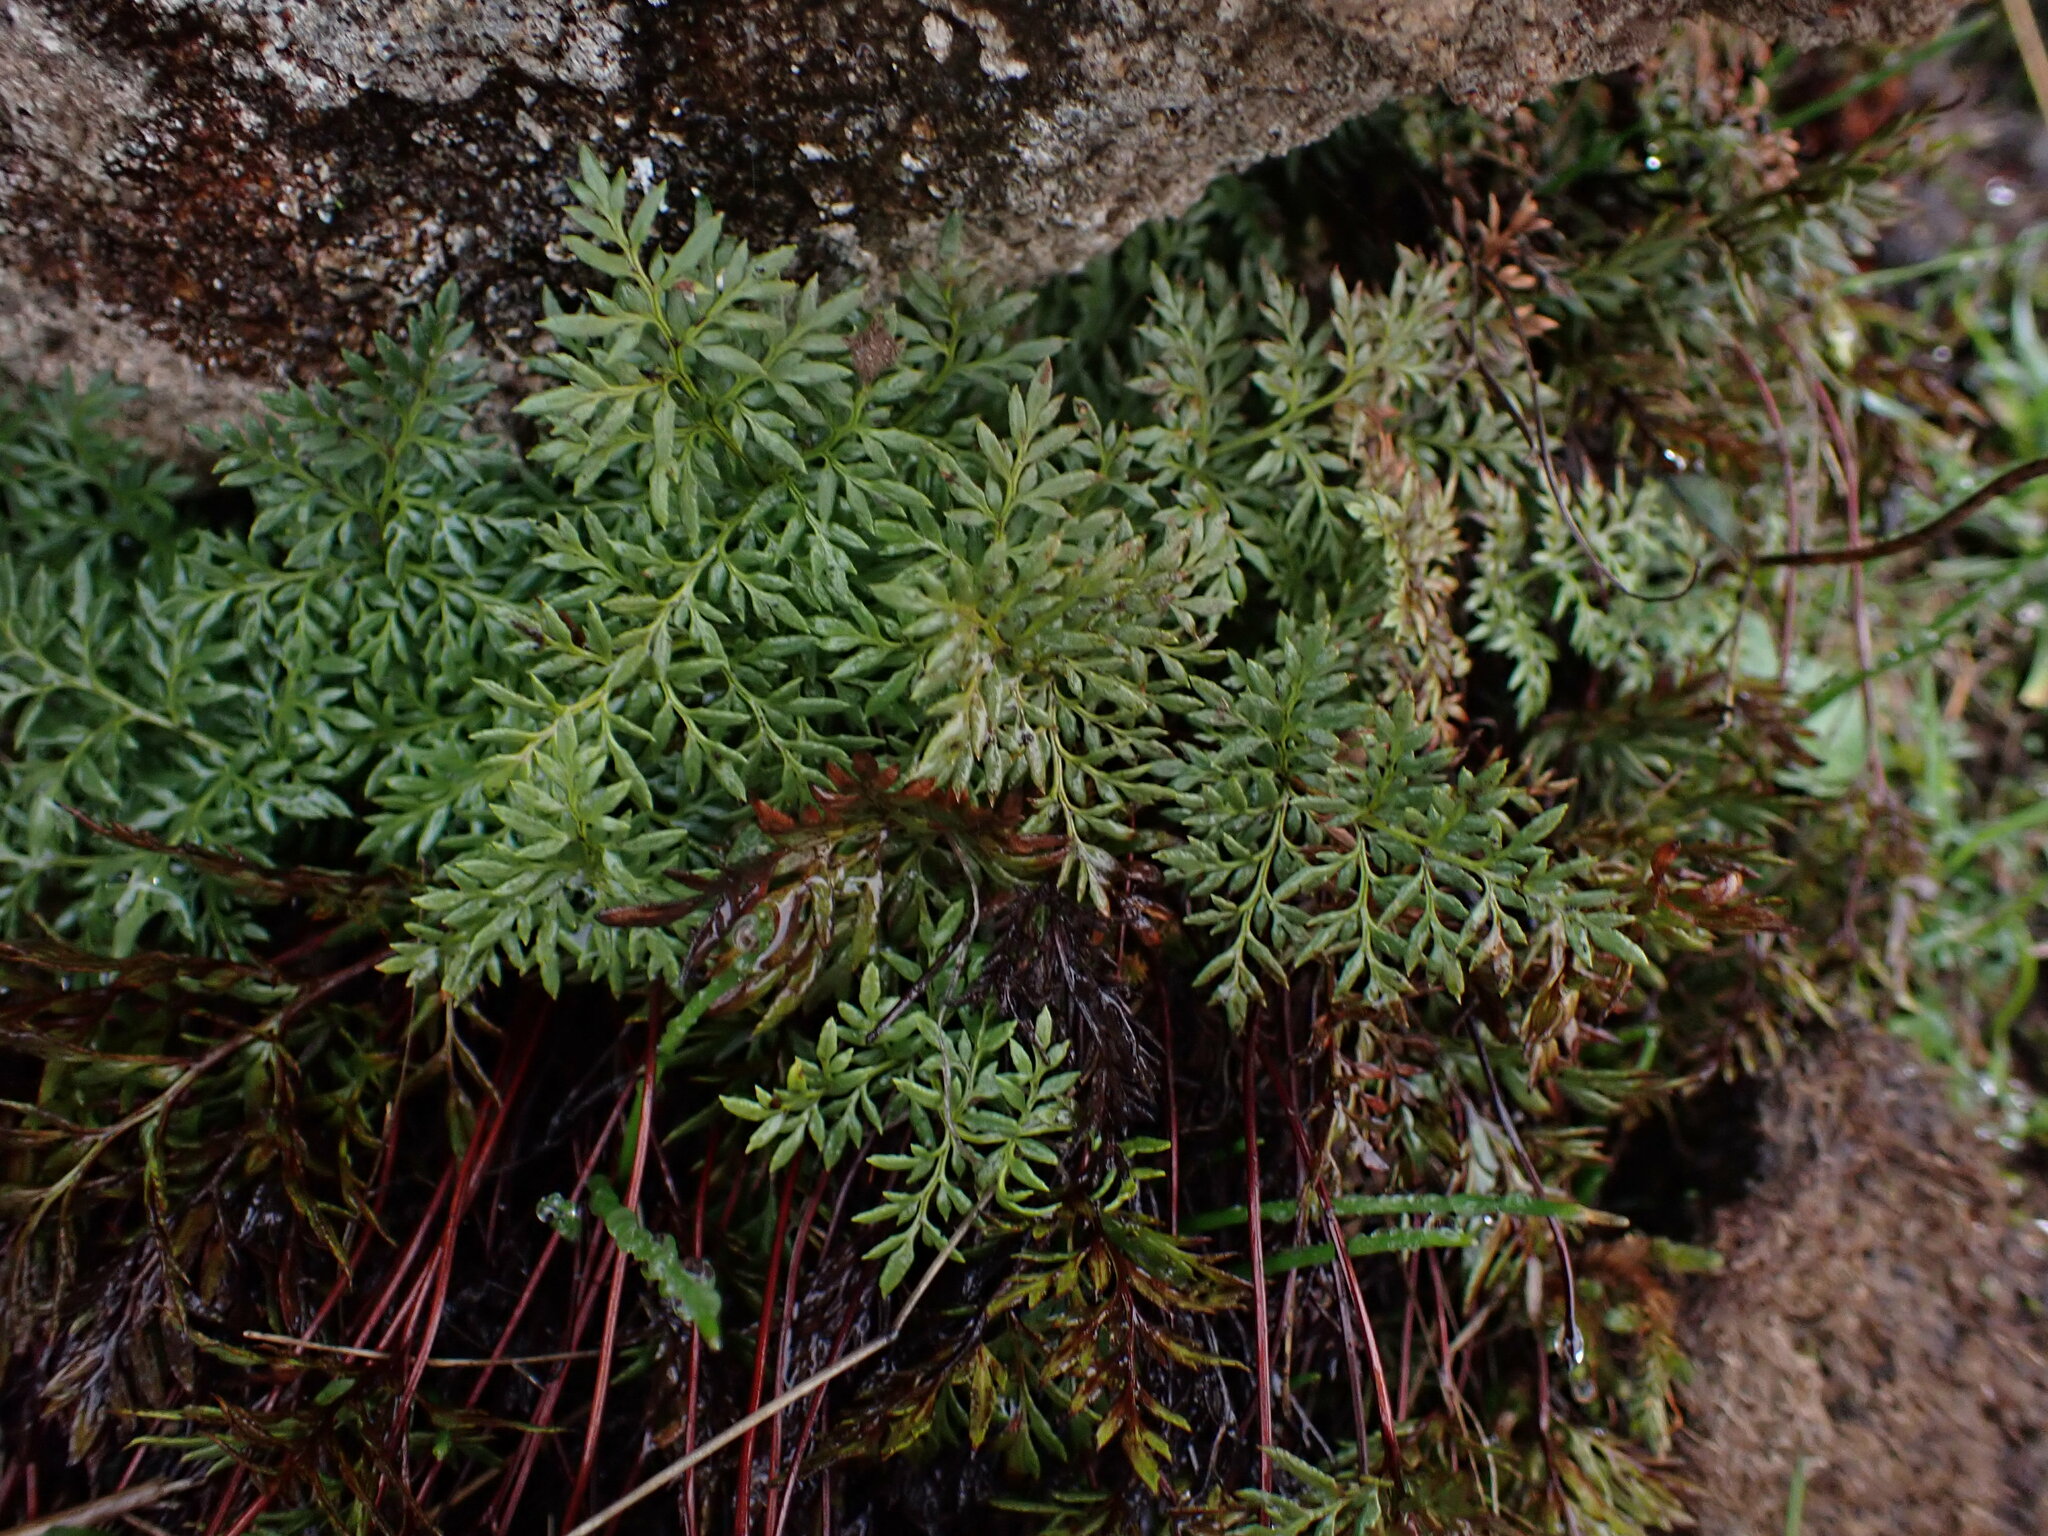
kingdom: Plantae
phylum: Tracheophyta
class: Polypodiopsida
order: Polypodiales
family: Pteridaceae
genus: Aspidotis
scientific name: Aspidotis densa
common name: Indian's dream
